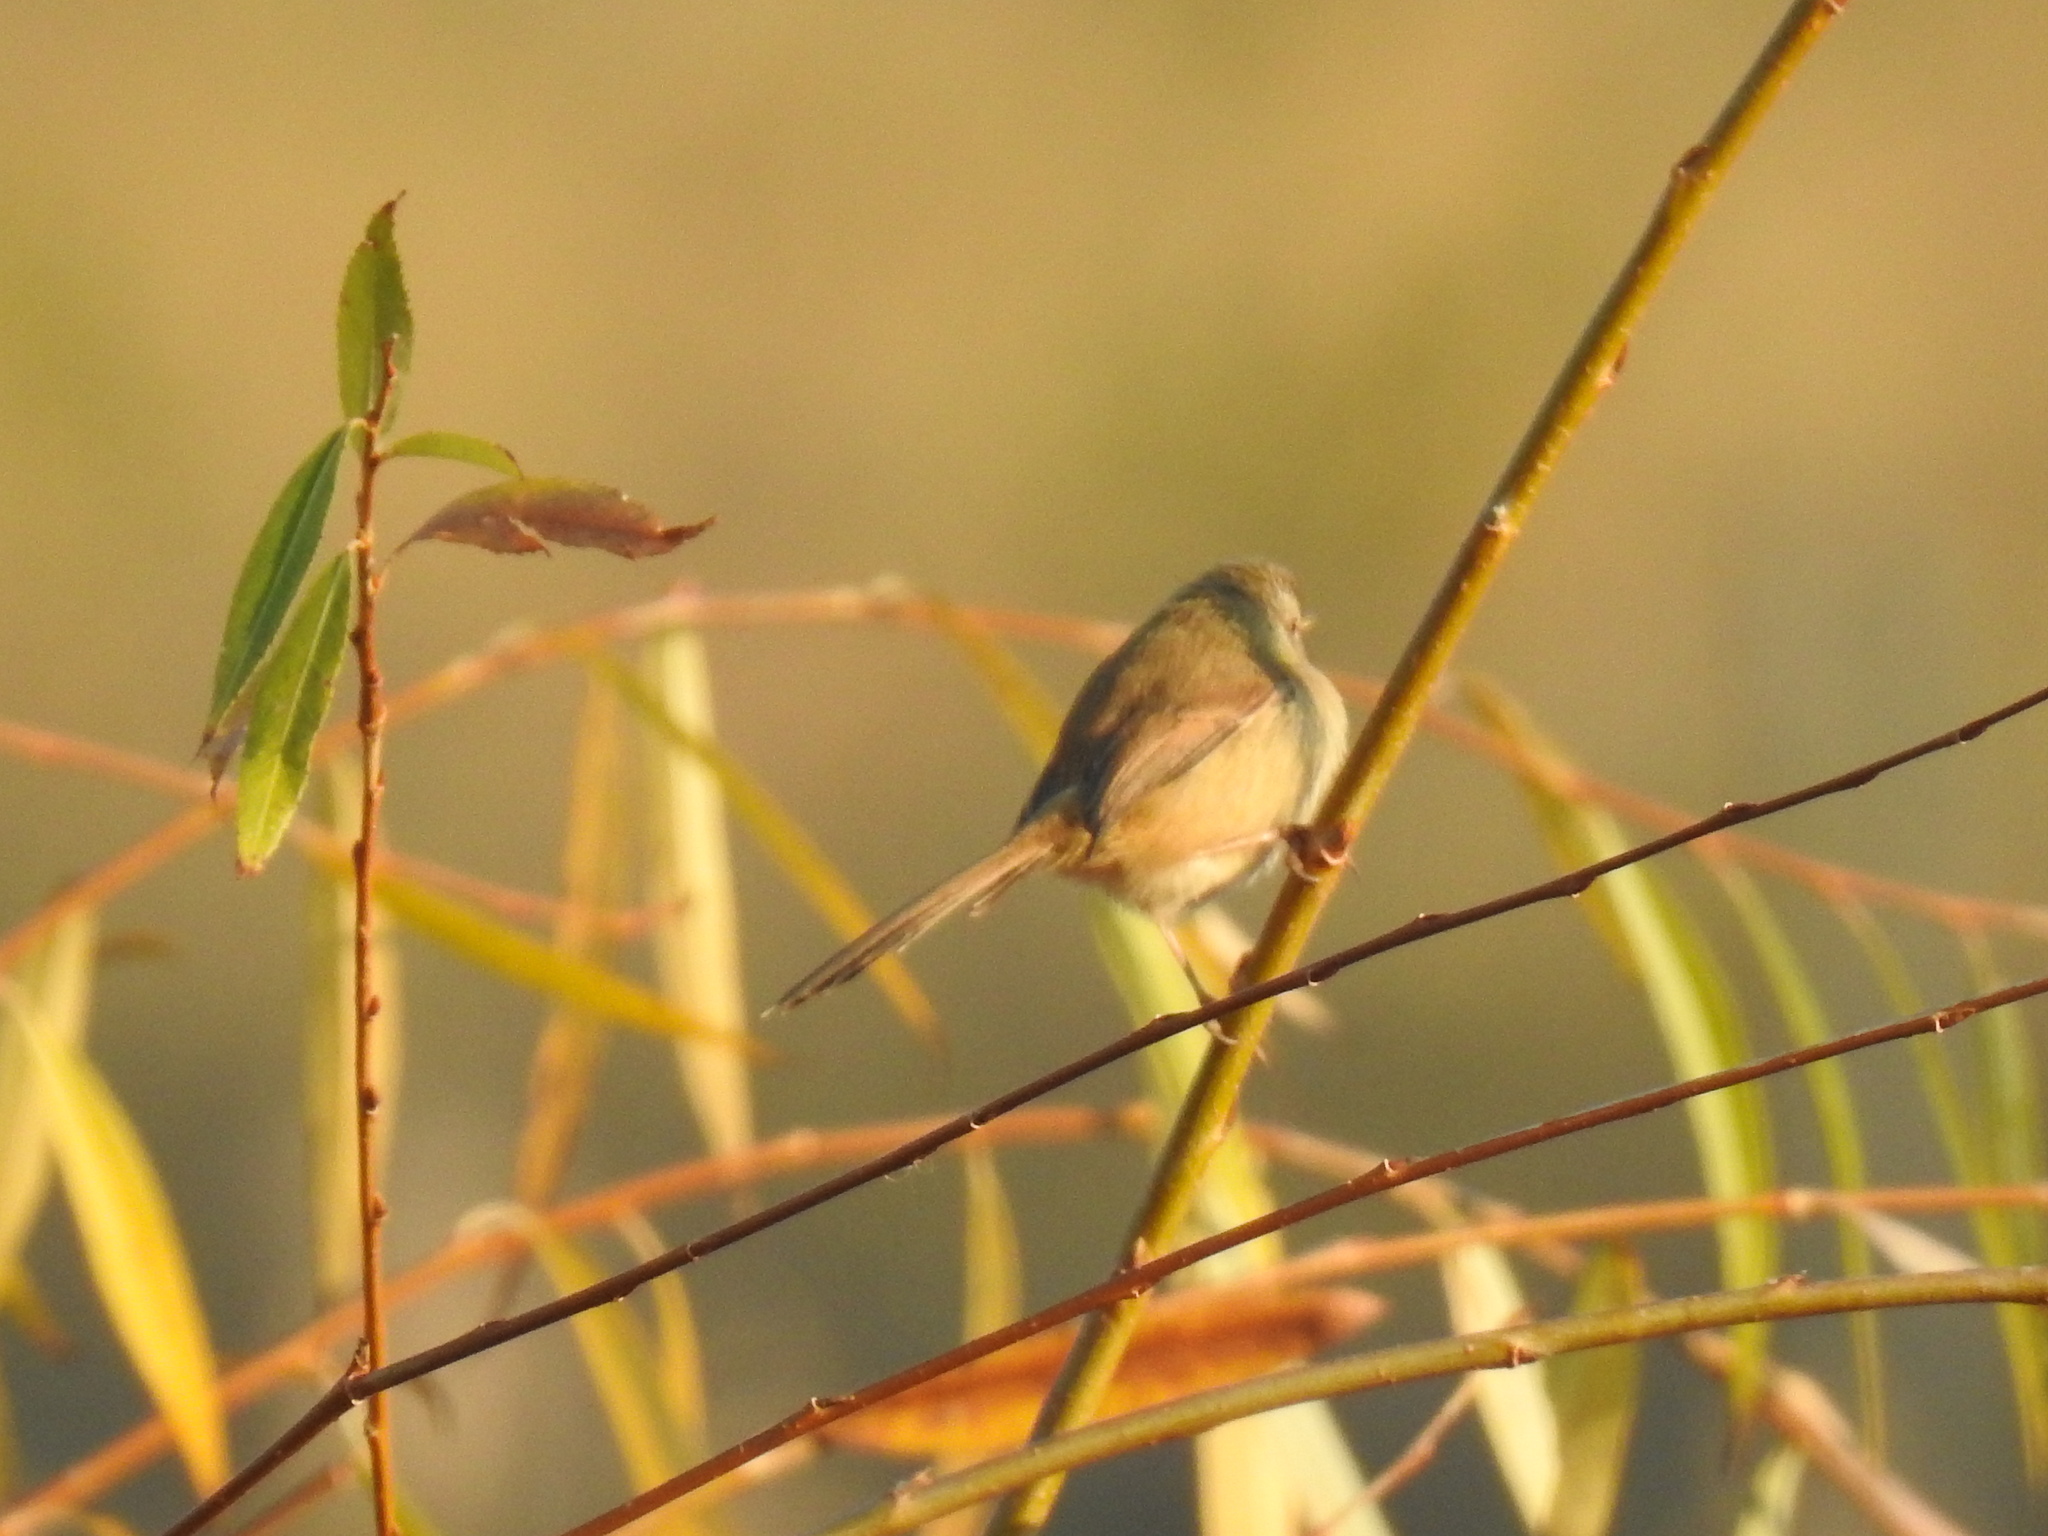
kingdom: Animalia
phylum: Chordata
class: Aves
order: Passeriformes
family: Cisticolidae
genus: Prinia
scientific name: Prinia subflava
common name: Tawny-flanked prinia
